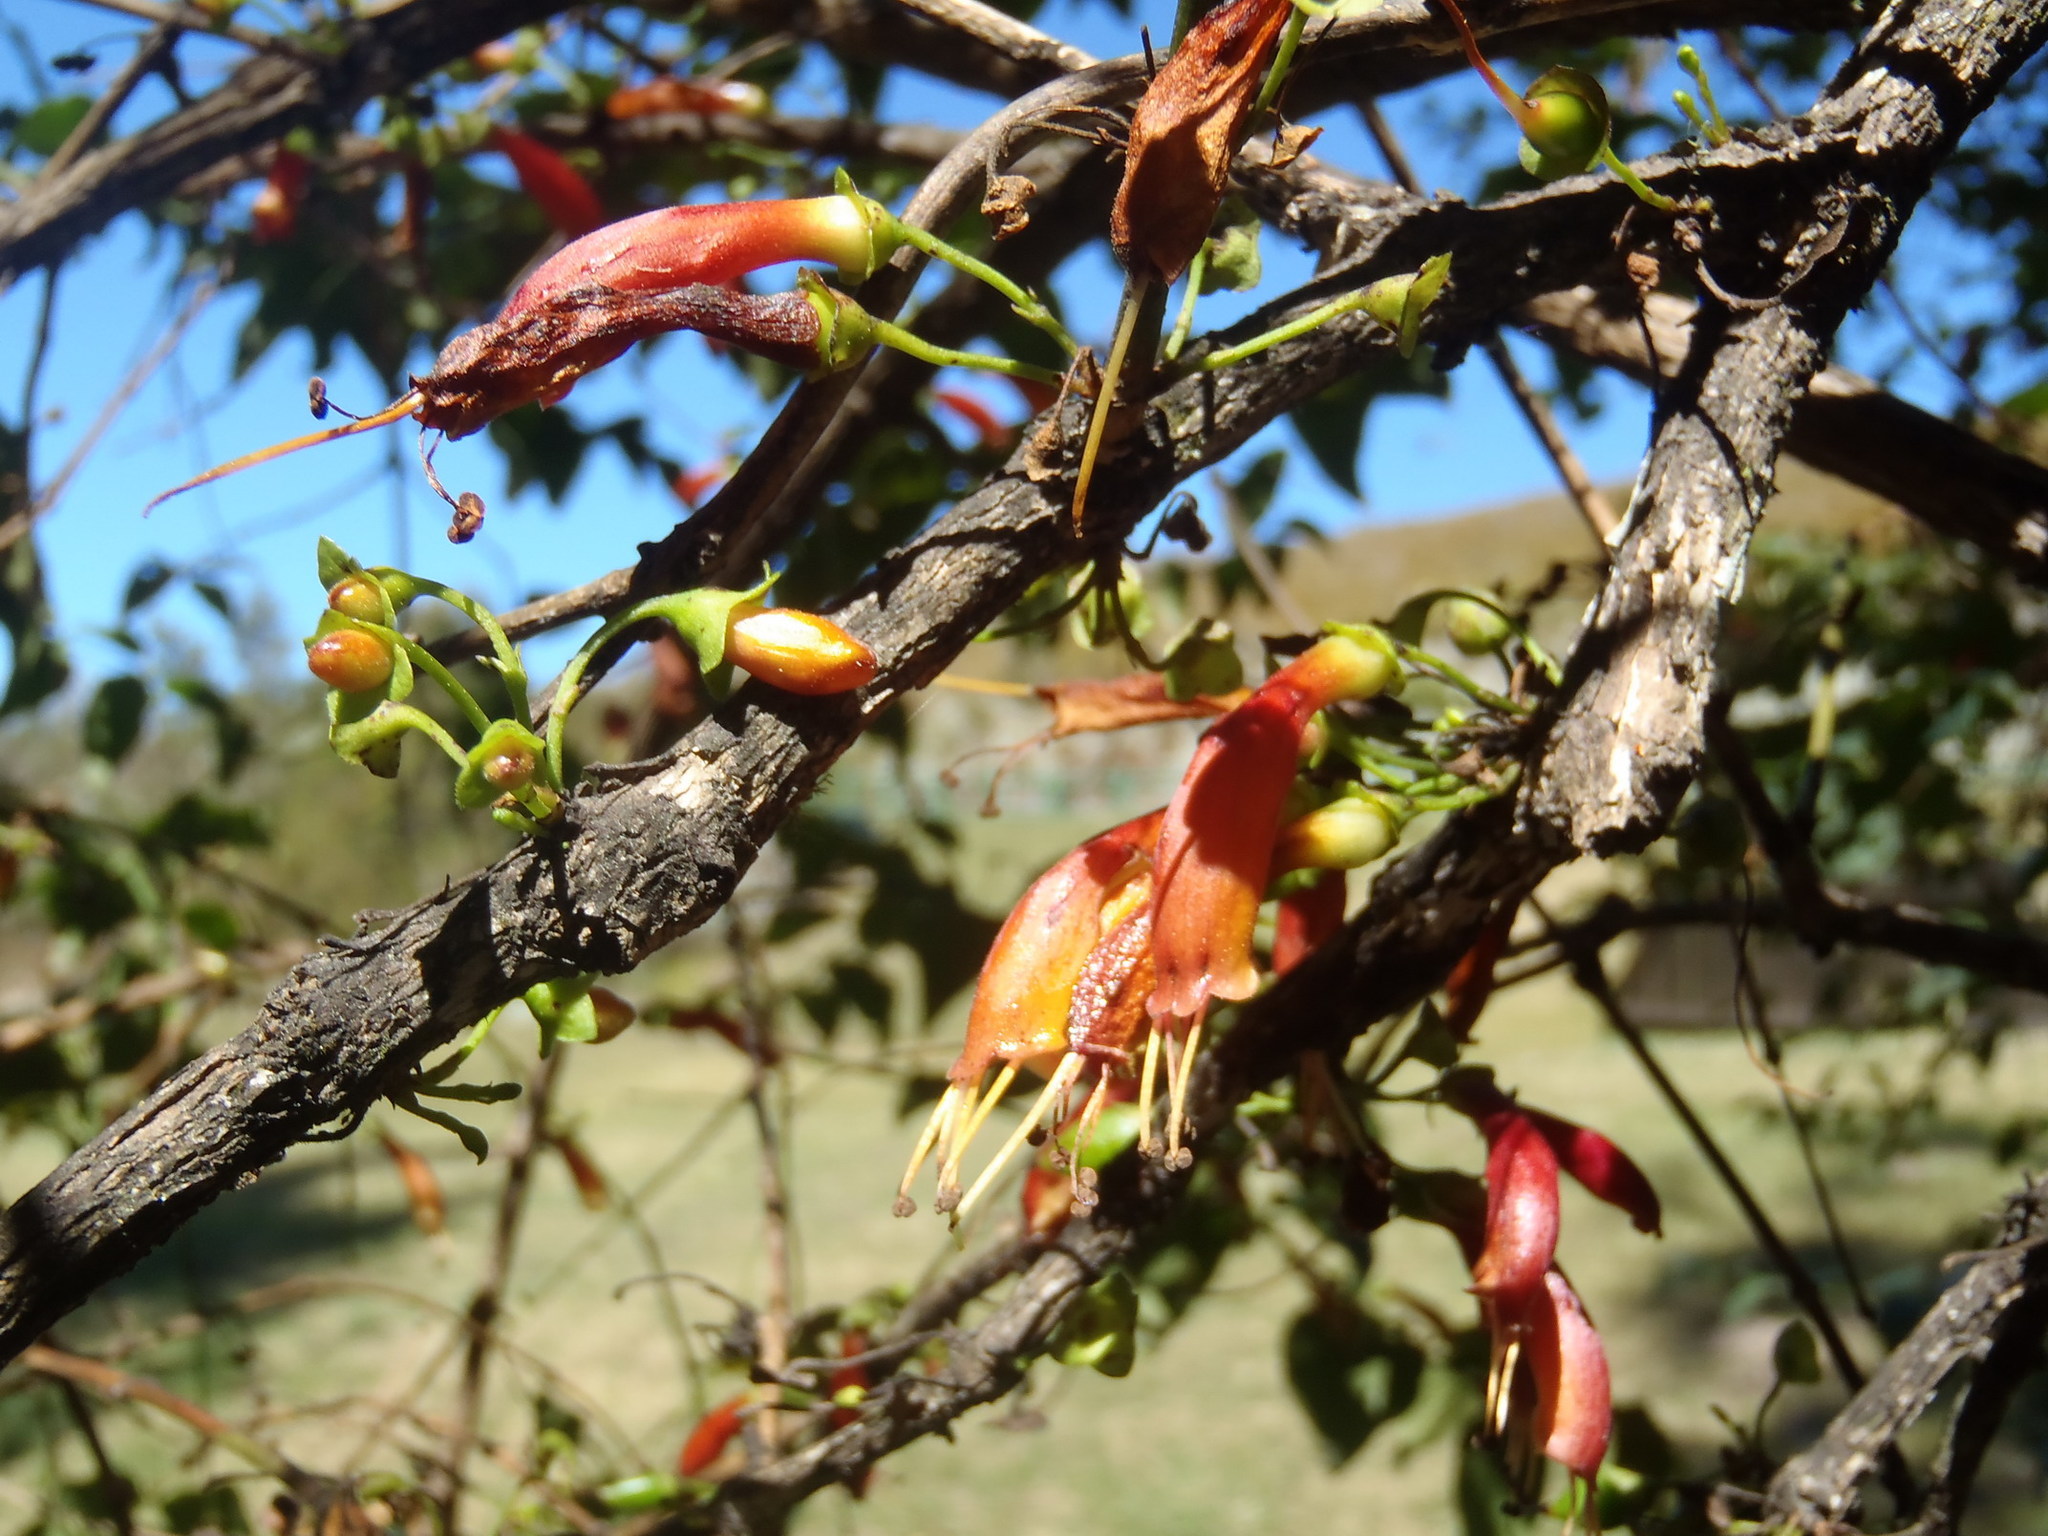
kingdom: Plantae
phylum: Tracheophyta
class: Magnoliopsida
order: Lamiales
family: Stilbaceae
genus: Halleria
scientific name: Halleria lucida
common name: Tree fuschia
